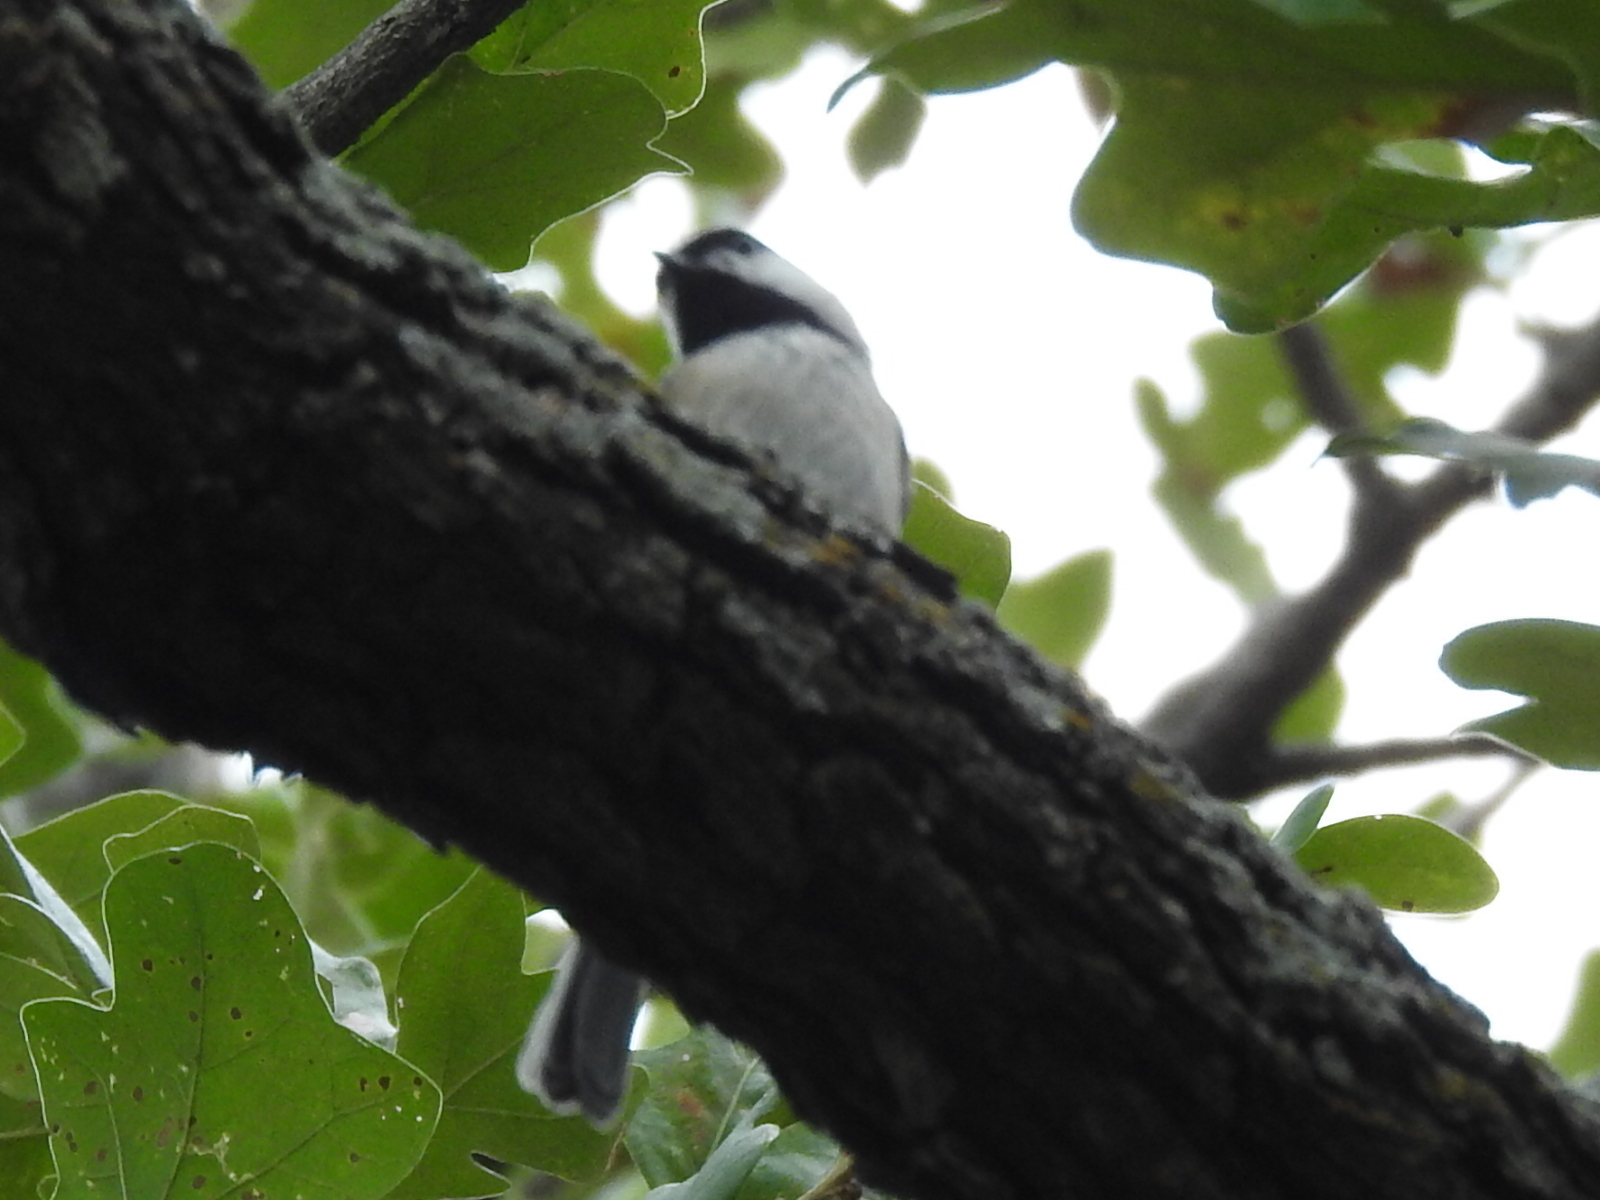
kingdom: Animalia
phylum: Chordata
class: Aves
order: Passeriformes
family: Paridae
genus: Poecile
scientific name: Poecile carolinensis
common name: Carolina chickadee
